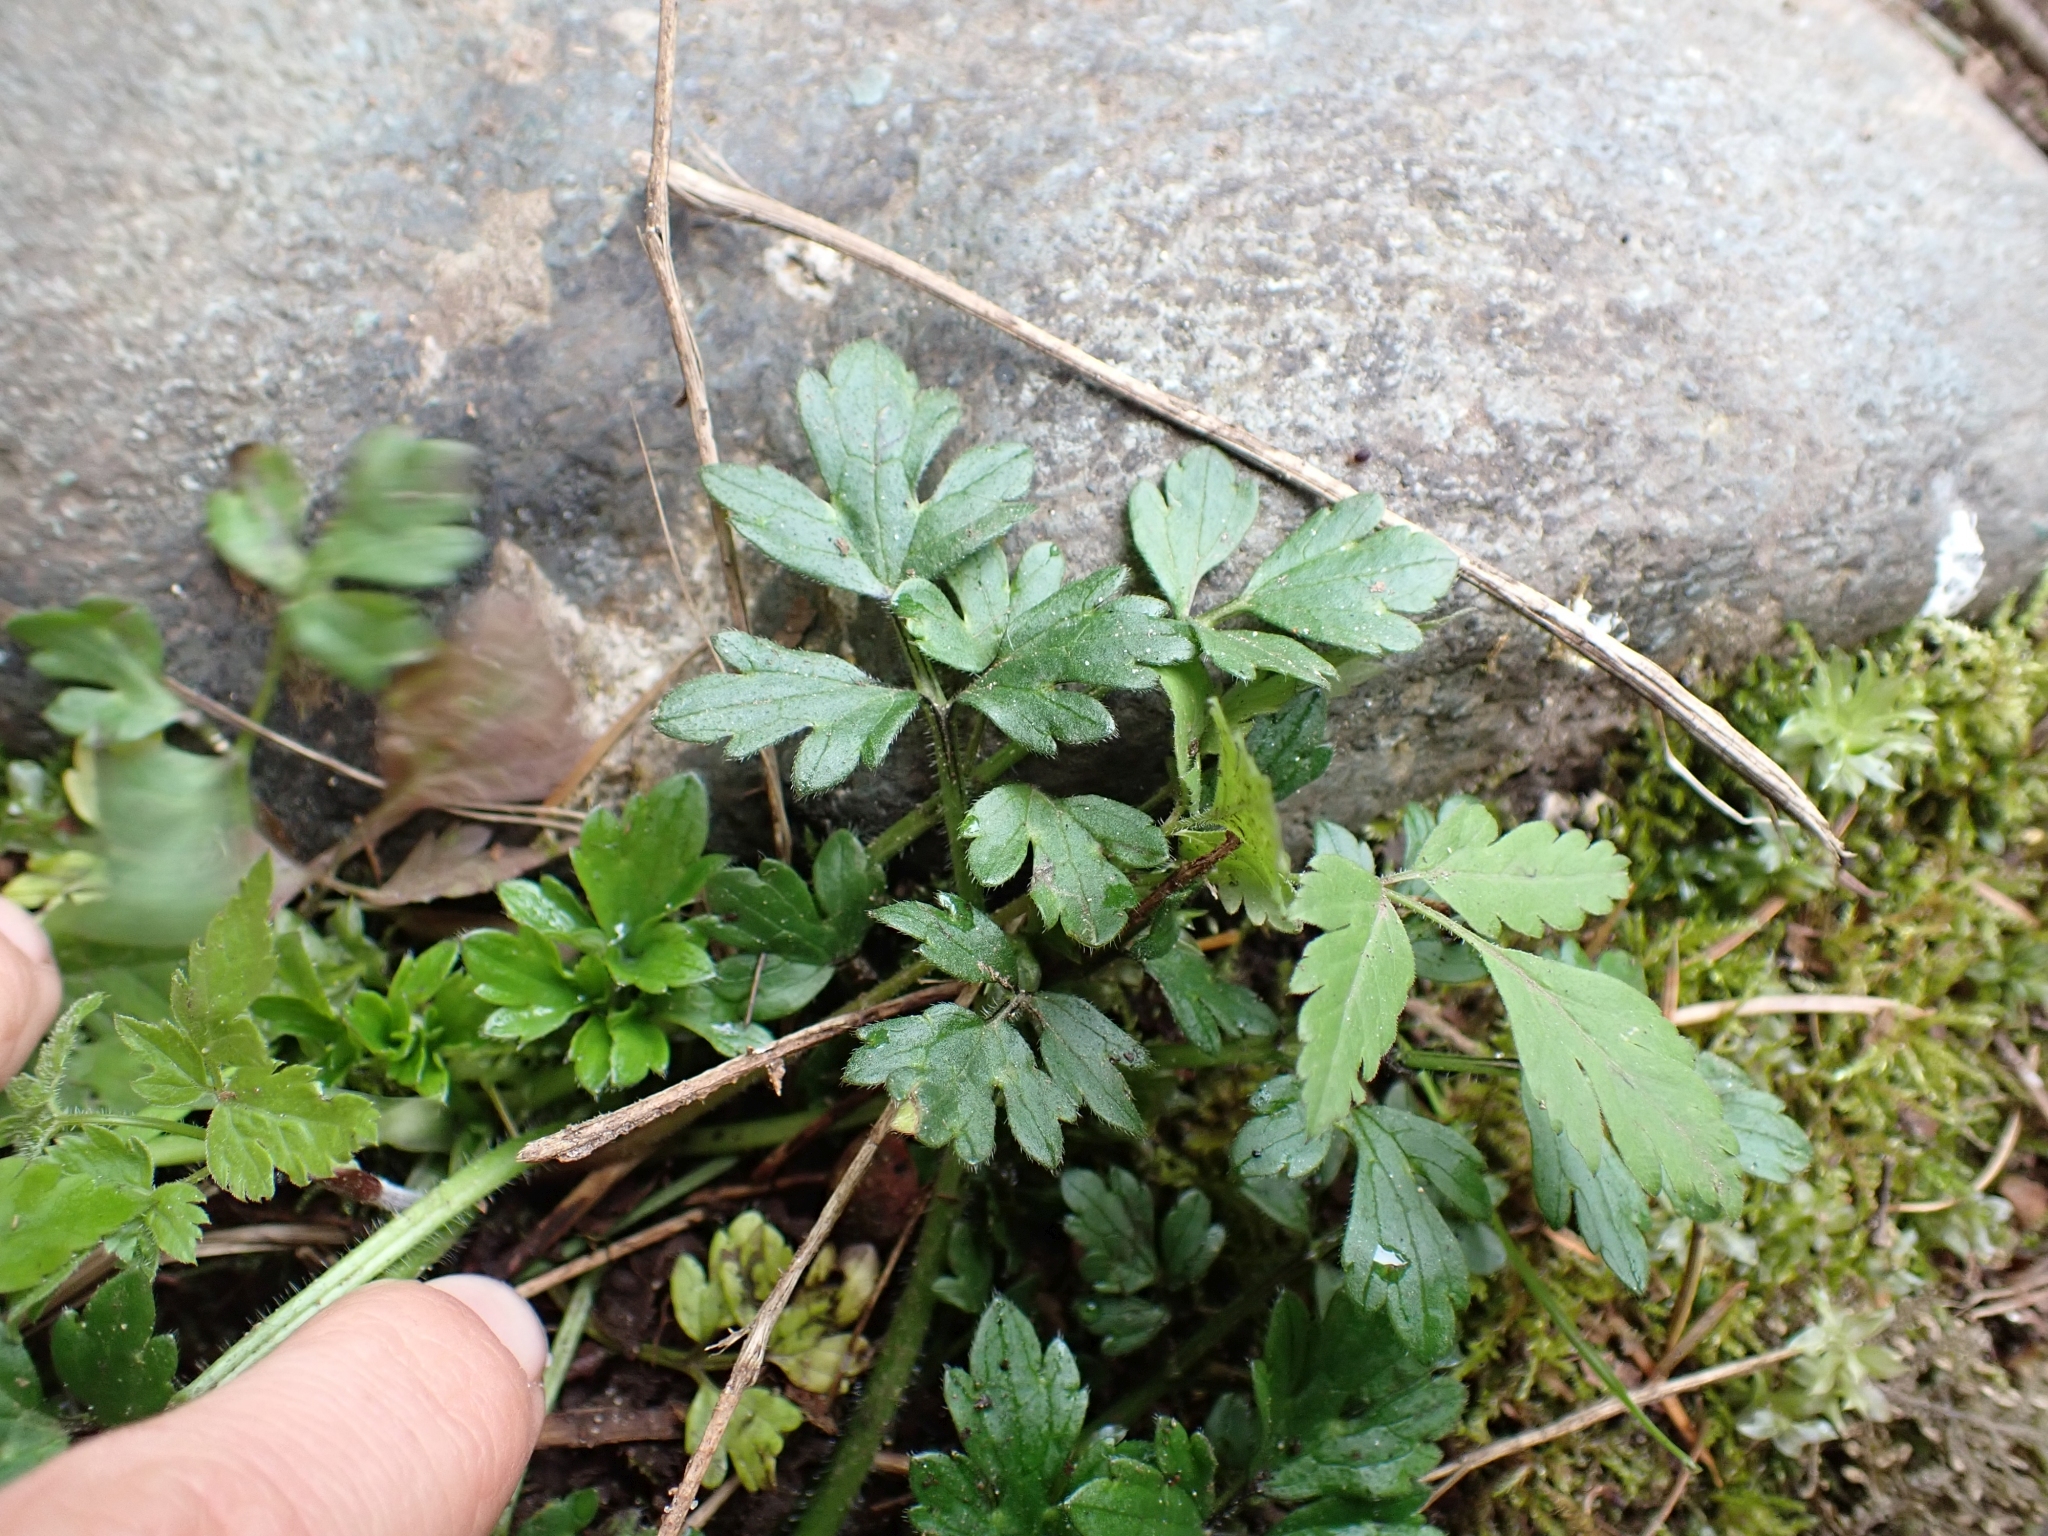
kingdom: Plantae
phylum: Tracheophyta
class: Magnoliopsida
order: Ranunculales
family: Ranunculaceae
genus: Ranunculus
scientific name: Ranunculus repens
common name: Creeping buttercup
